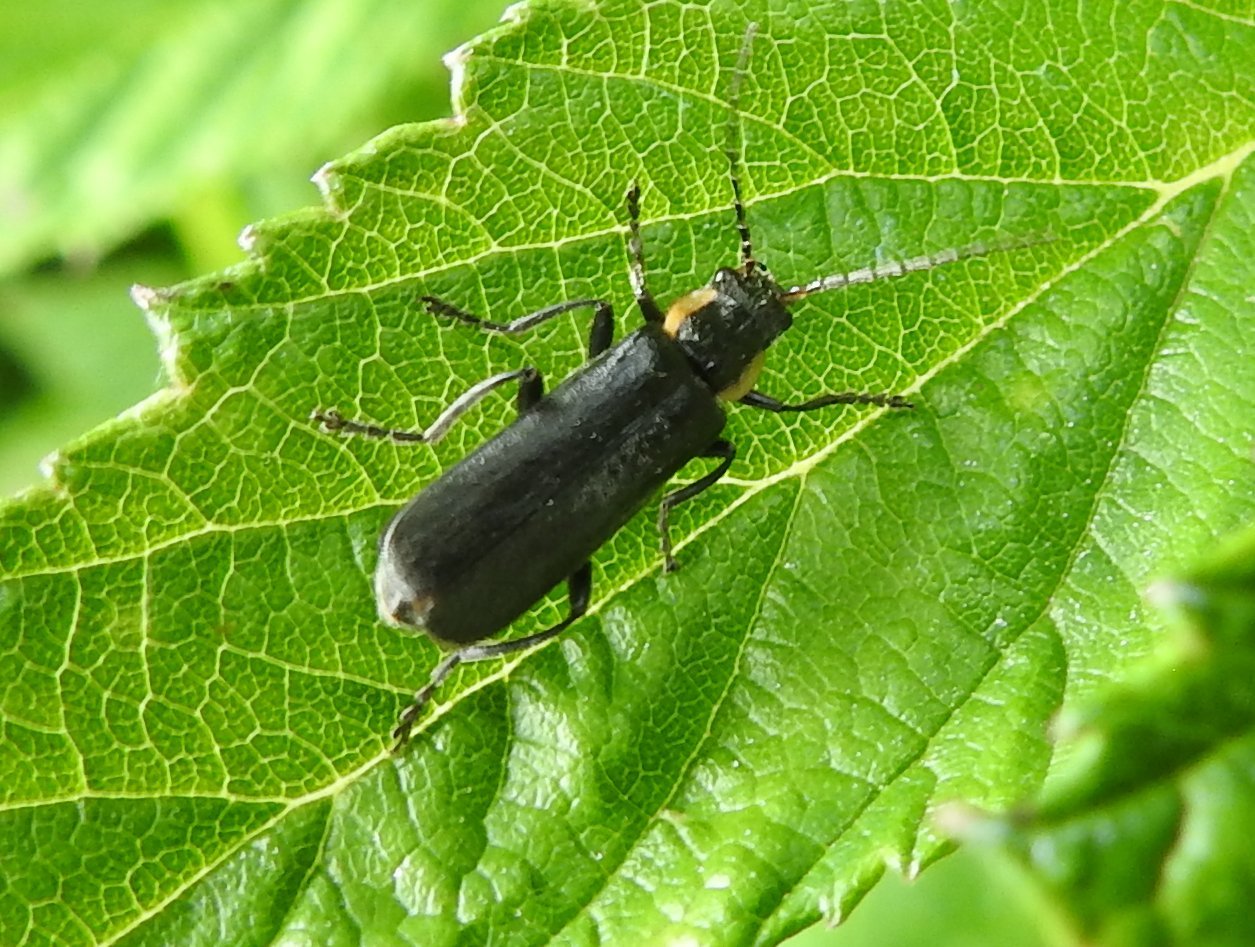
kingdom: Animalia
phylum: Arthropoda
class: Insecta
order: Coleoptera
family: Cantharidae
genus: Cantharis
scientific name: Cantharis obscura
